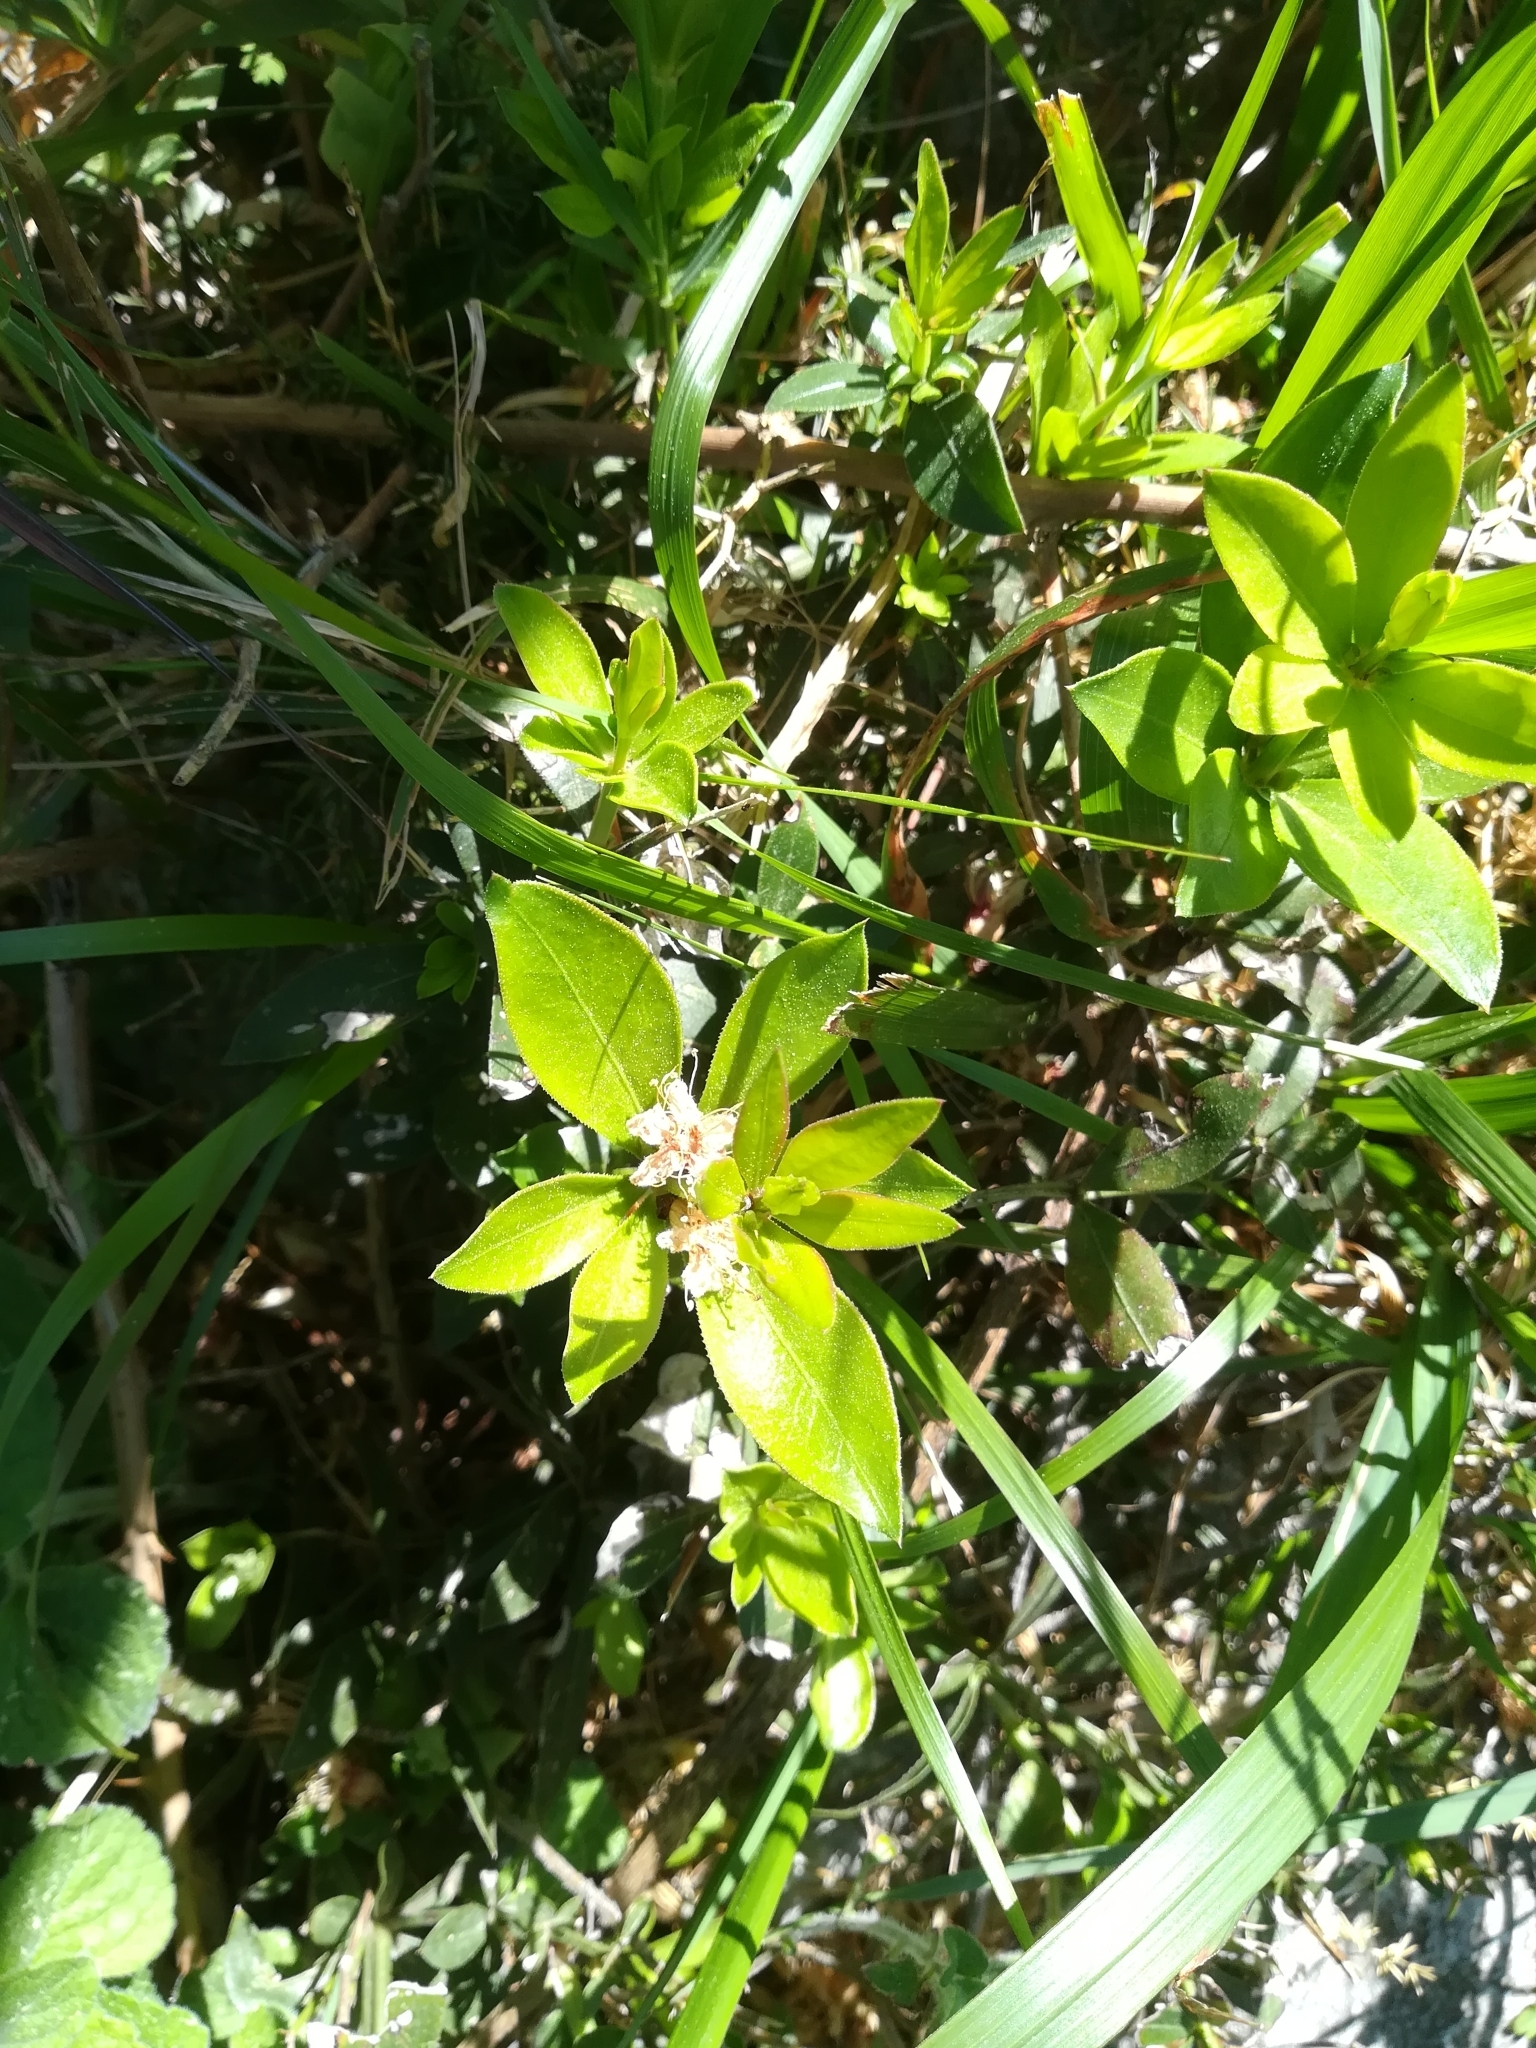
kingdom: Plantae
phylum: Tracheophyta
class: Magnoliopsida
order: Gentianales
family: Rubiaceae
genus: Rubia
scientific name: Rubia peregrina
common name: Wild madder
